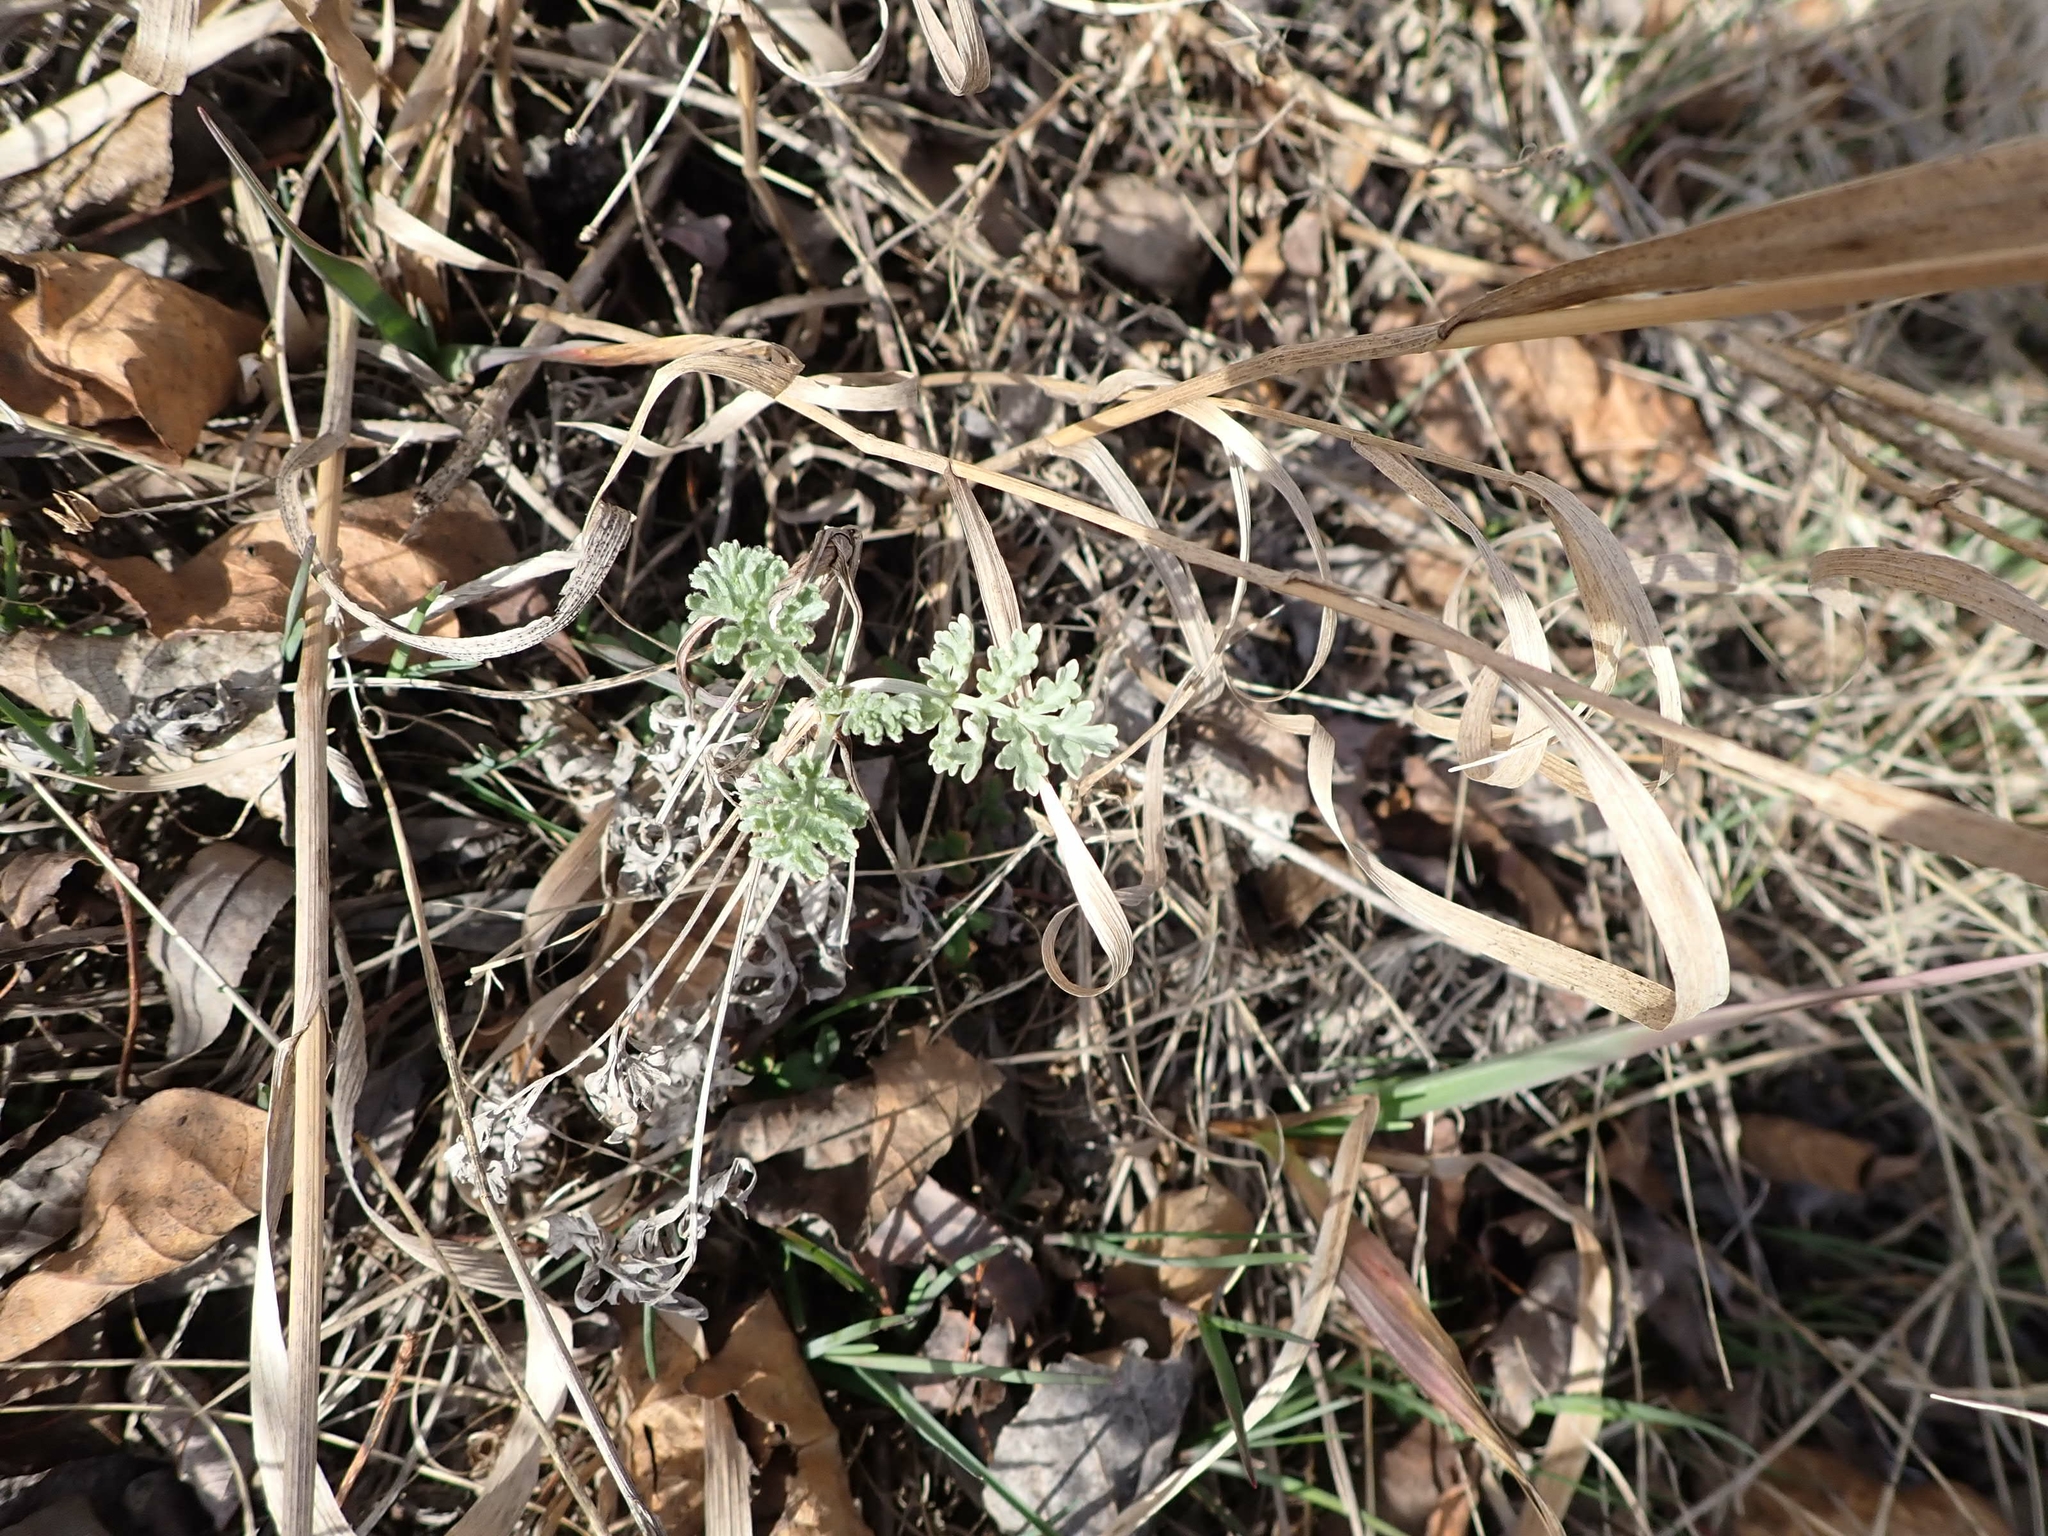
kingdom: Plantae
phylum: Tracheophyta
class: Magnoliopsida
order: Asterales
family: Asteraceae
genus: Artemisia
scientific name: Artemisia absinthium
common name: Wormwood
